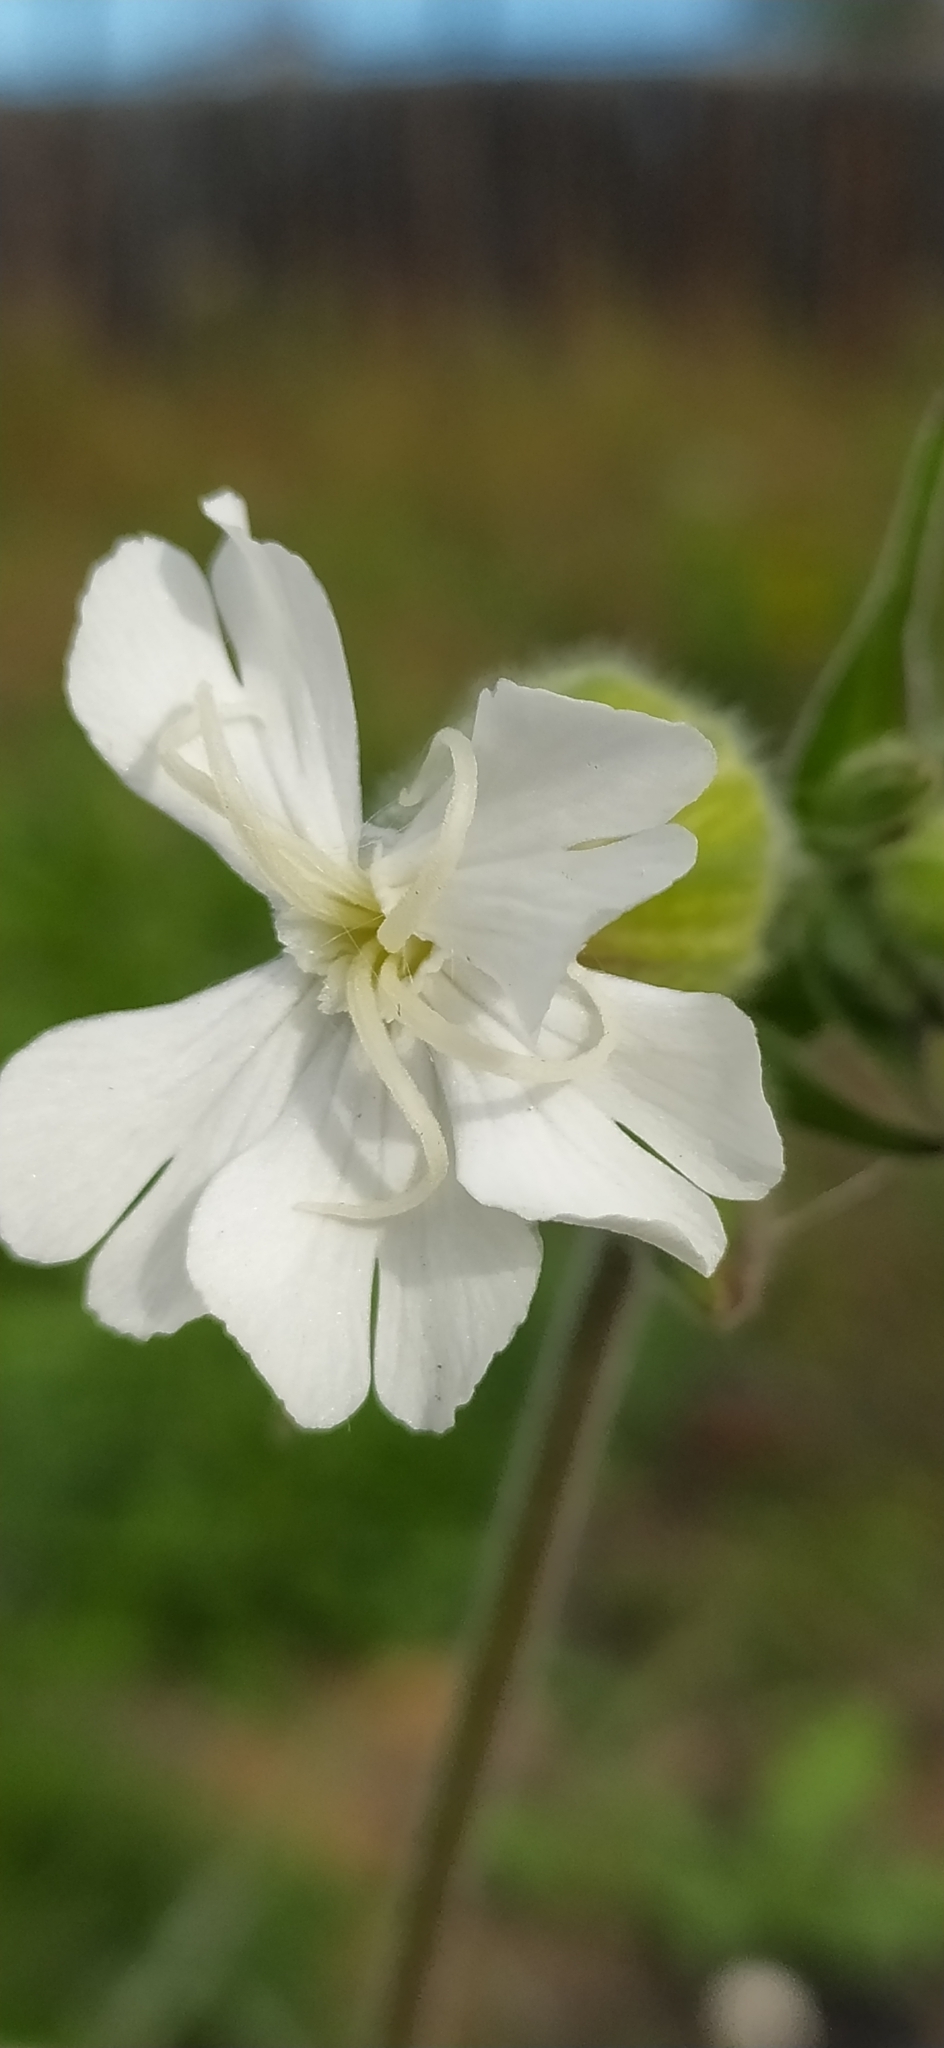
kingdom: Plantae
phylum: Tracheophyta
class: Magnoliopsida
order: Caryophyllales
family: Caryophyllaceae
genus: Silene
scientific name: Silene latifolia
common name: White campion
